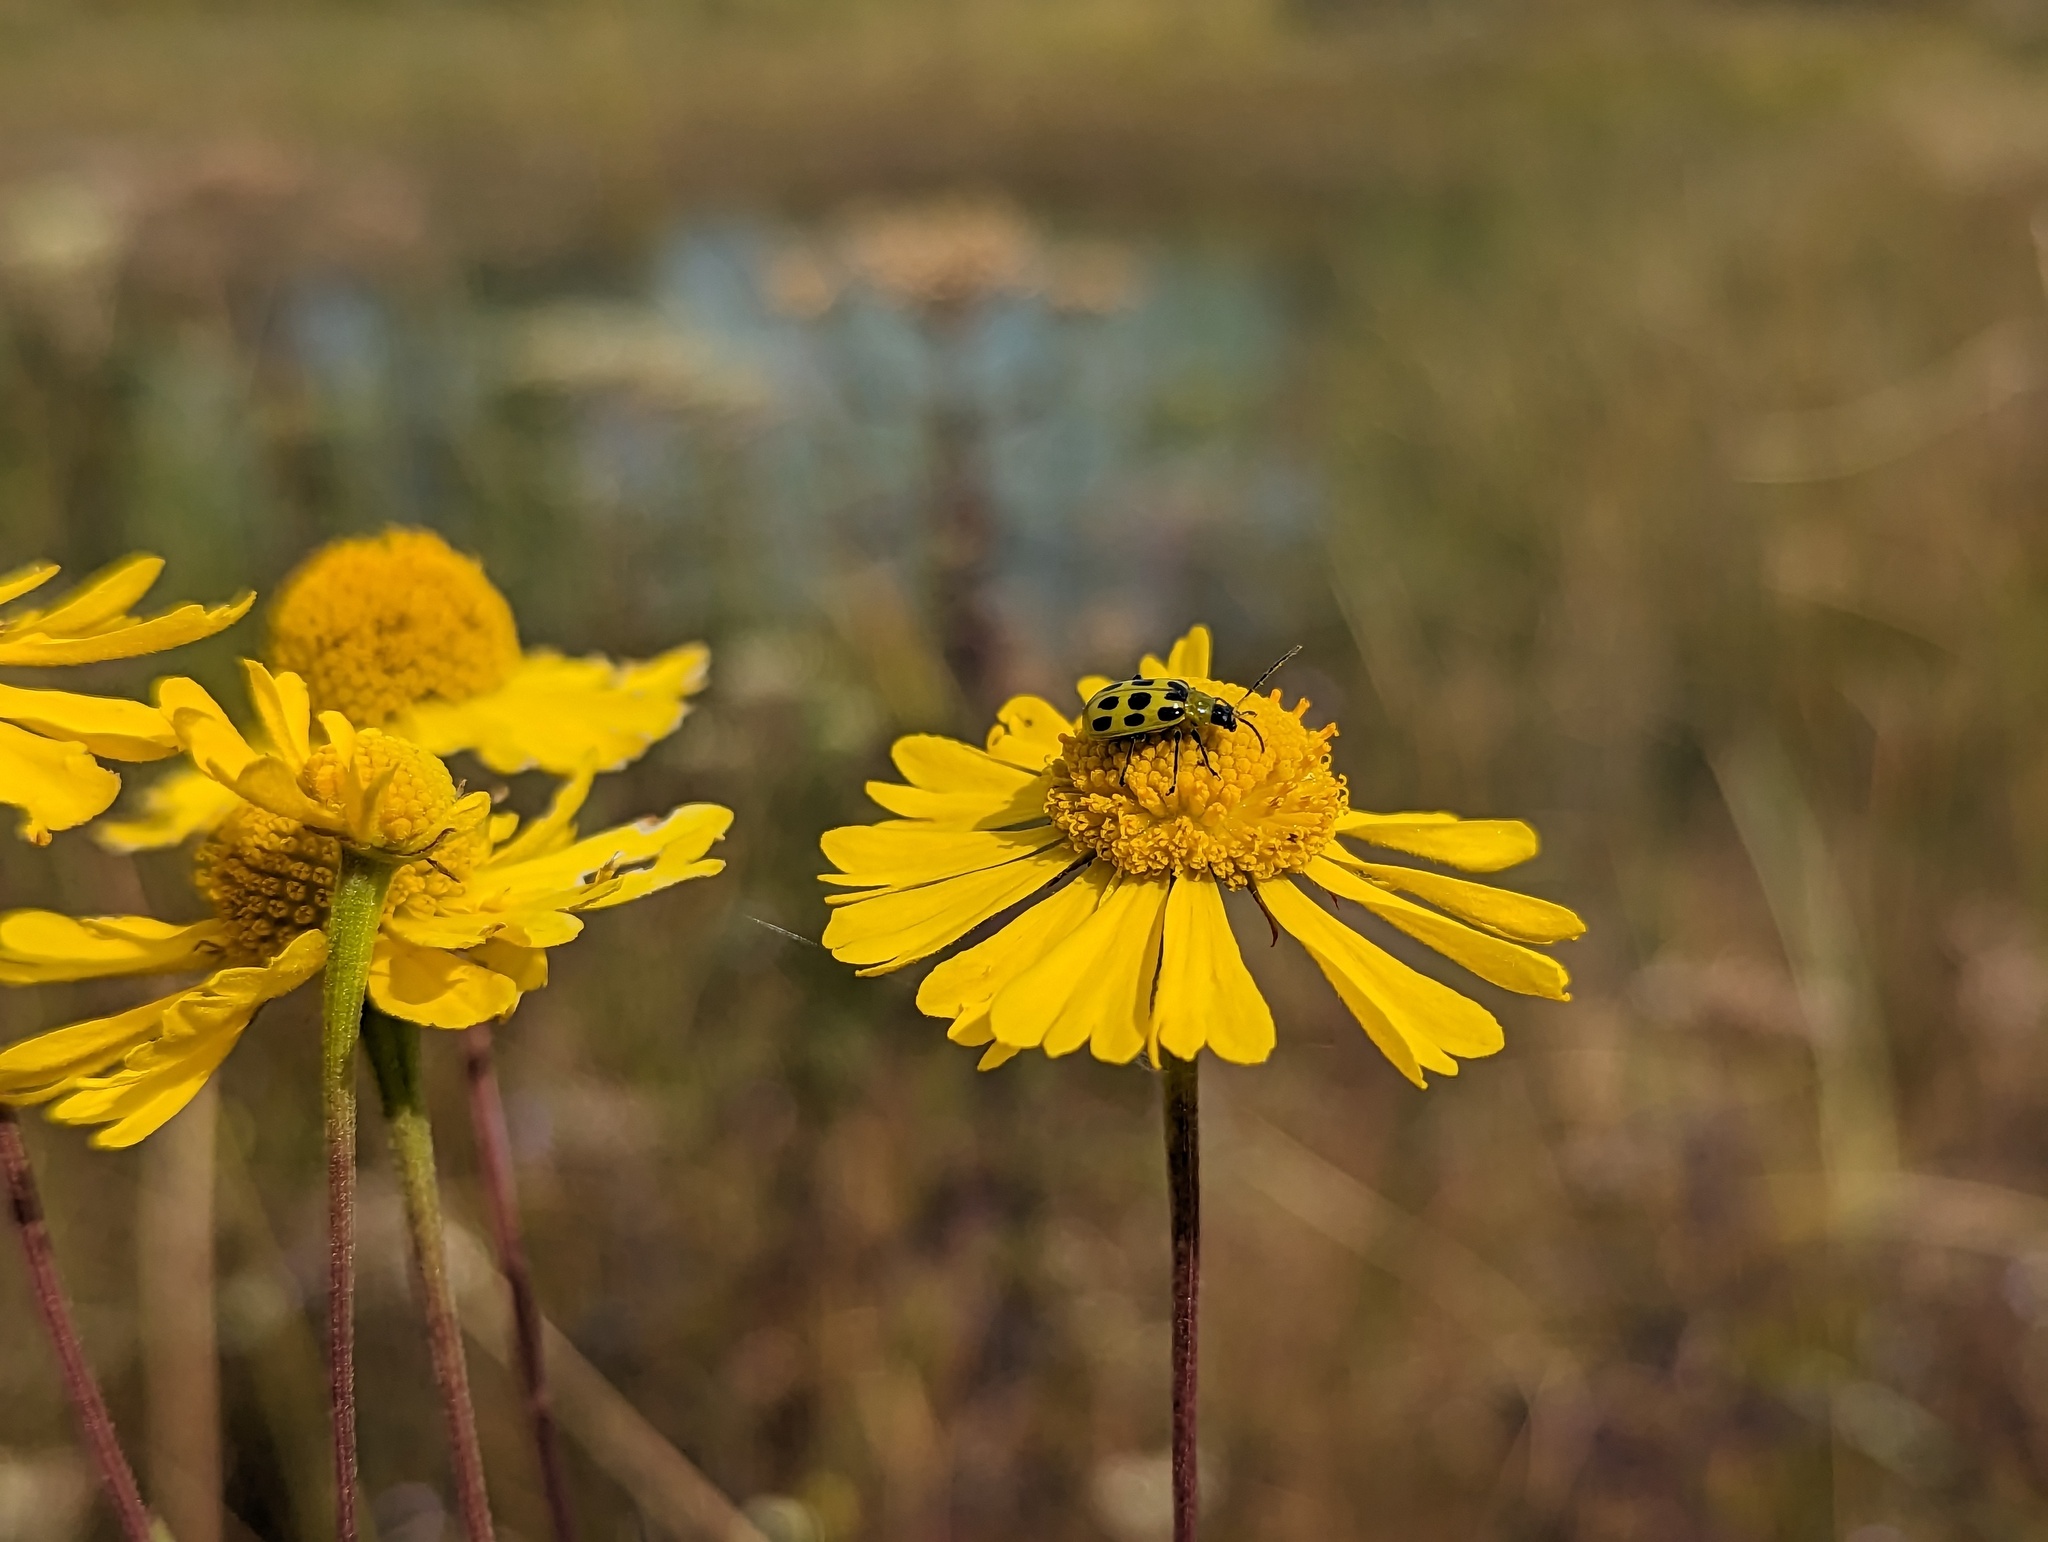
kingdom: Animalia
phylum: Arthropoda
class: Insecta
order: Coleoptera
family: Chrysomelidae
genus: Diabrotica
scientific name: Diabrotica undecimpunctata
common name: Spotted cucumber beetle
